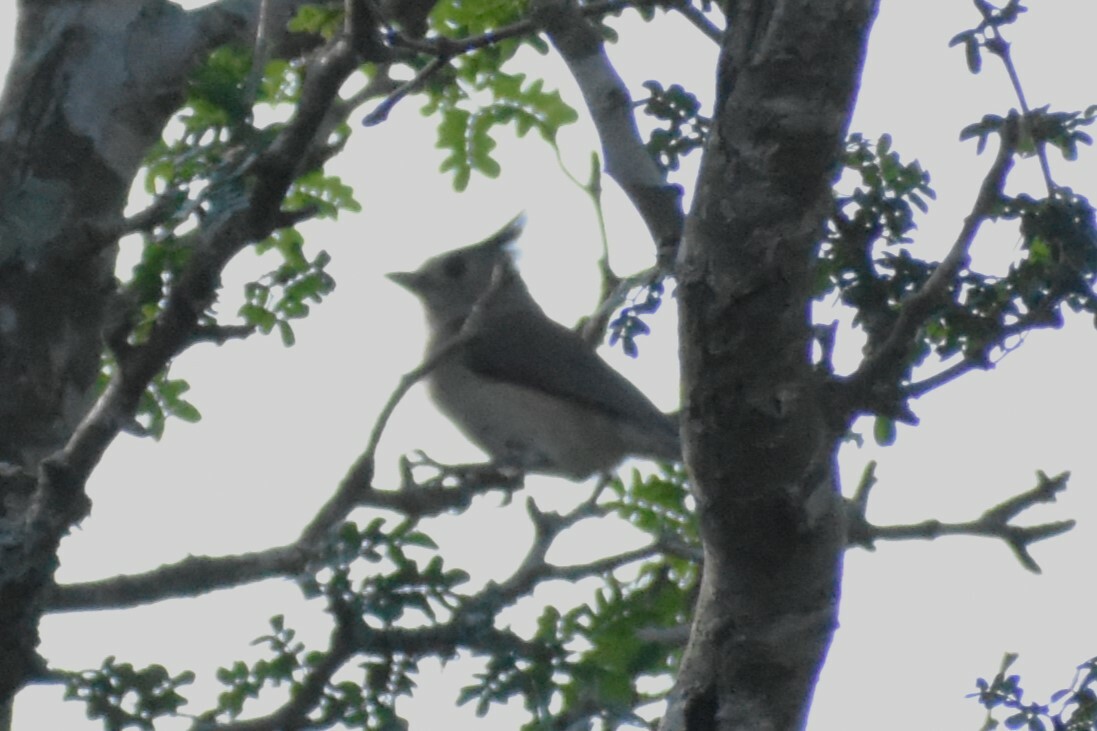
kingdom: Animalia
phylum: Chordata
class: Aves
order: Passeriformes
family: Paridae
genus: Baeolophus
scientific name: Baeolophus atricristatus
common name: Black-crested titmouse
